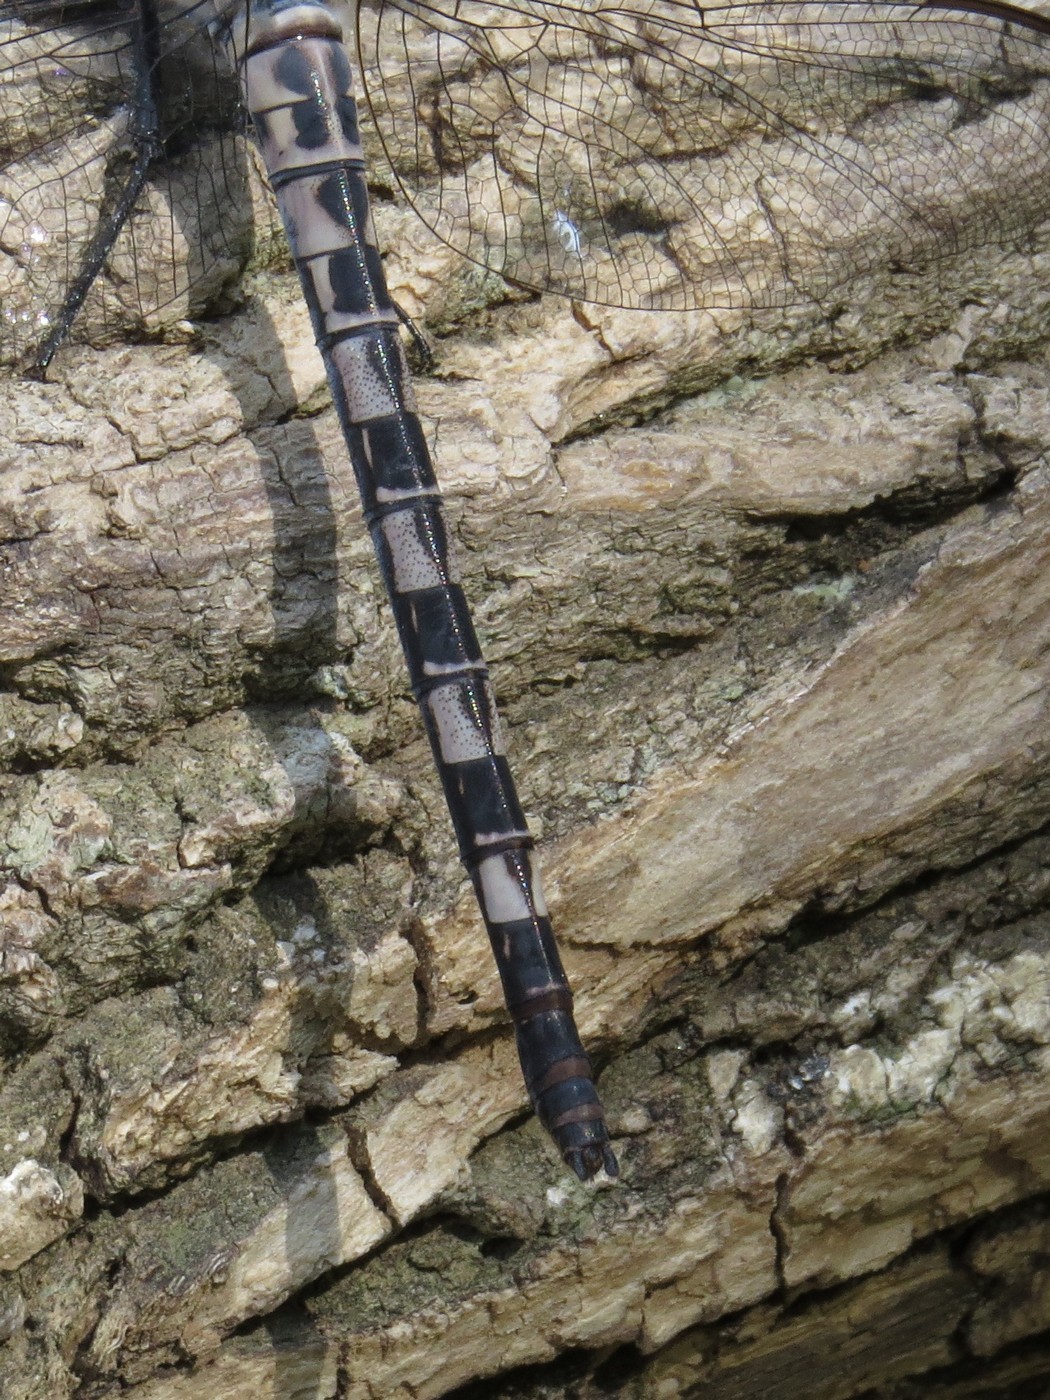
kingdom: Animalia
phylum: Arthropoda
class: Insecta
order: Odonata
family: Petaluridae
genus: Tachopteryx
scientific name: Tachopteryx thoreyi
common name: Gray petaltail
